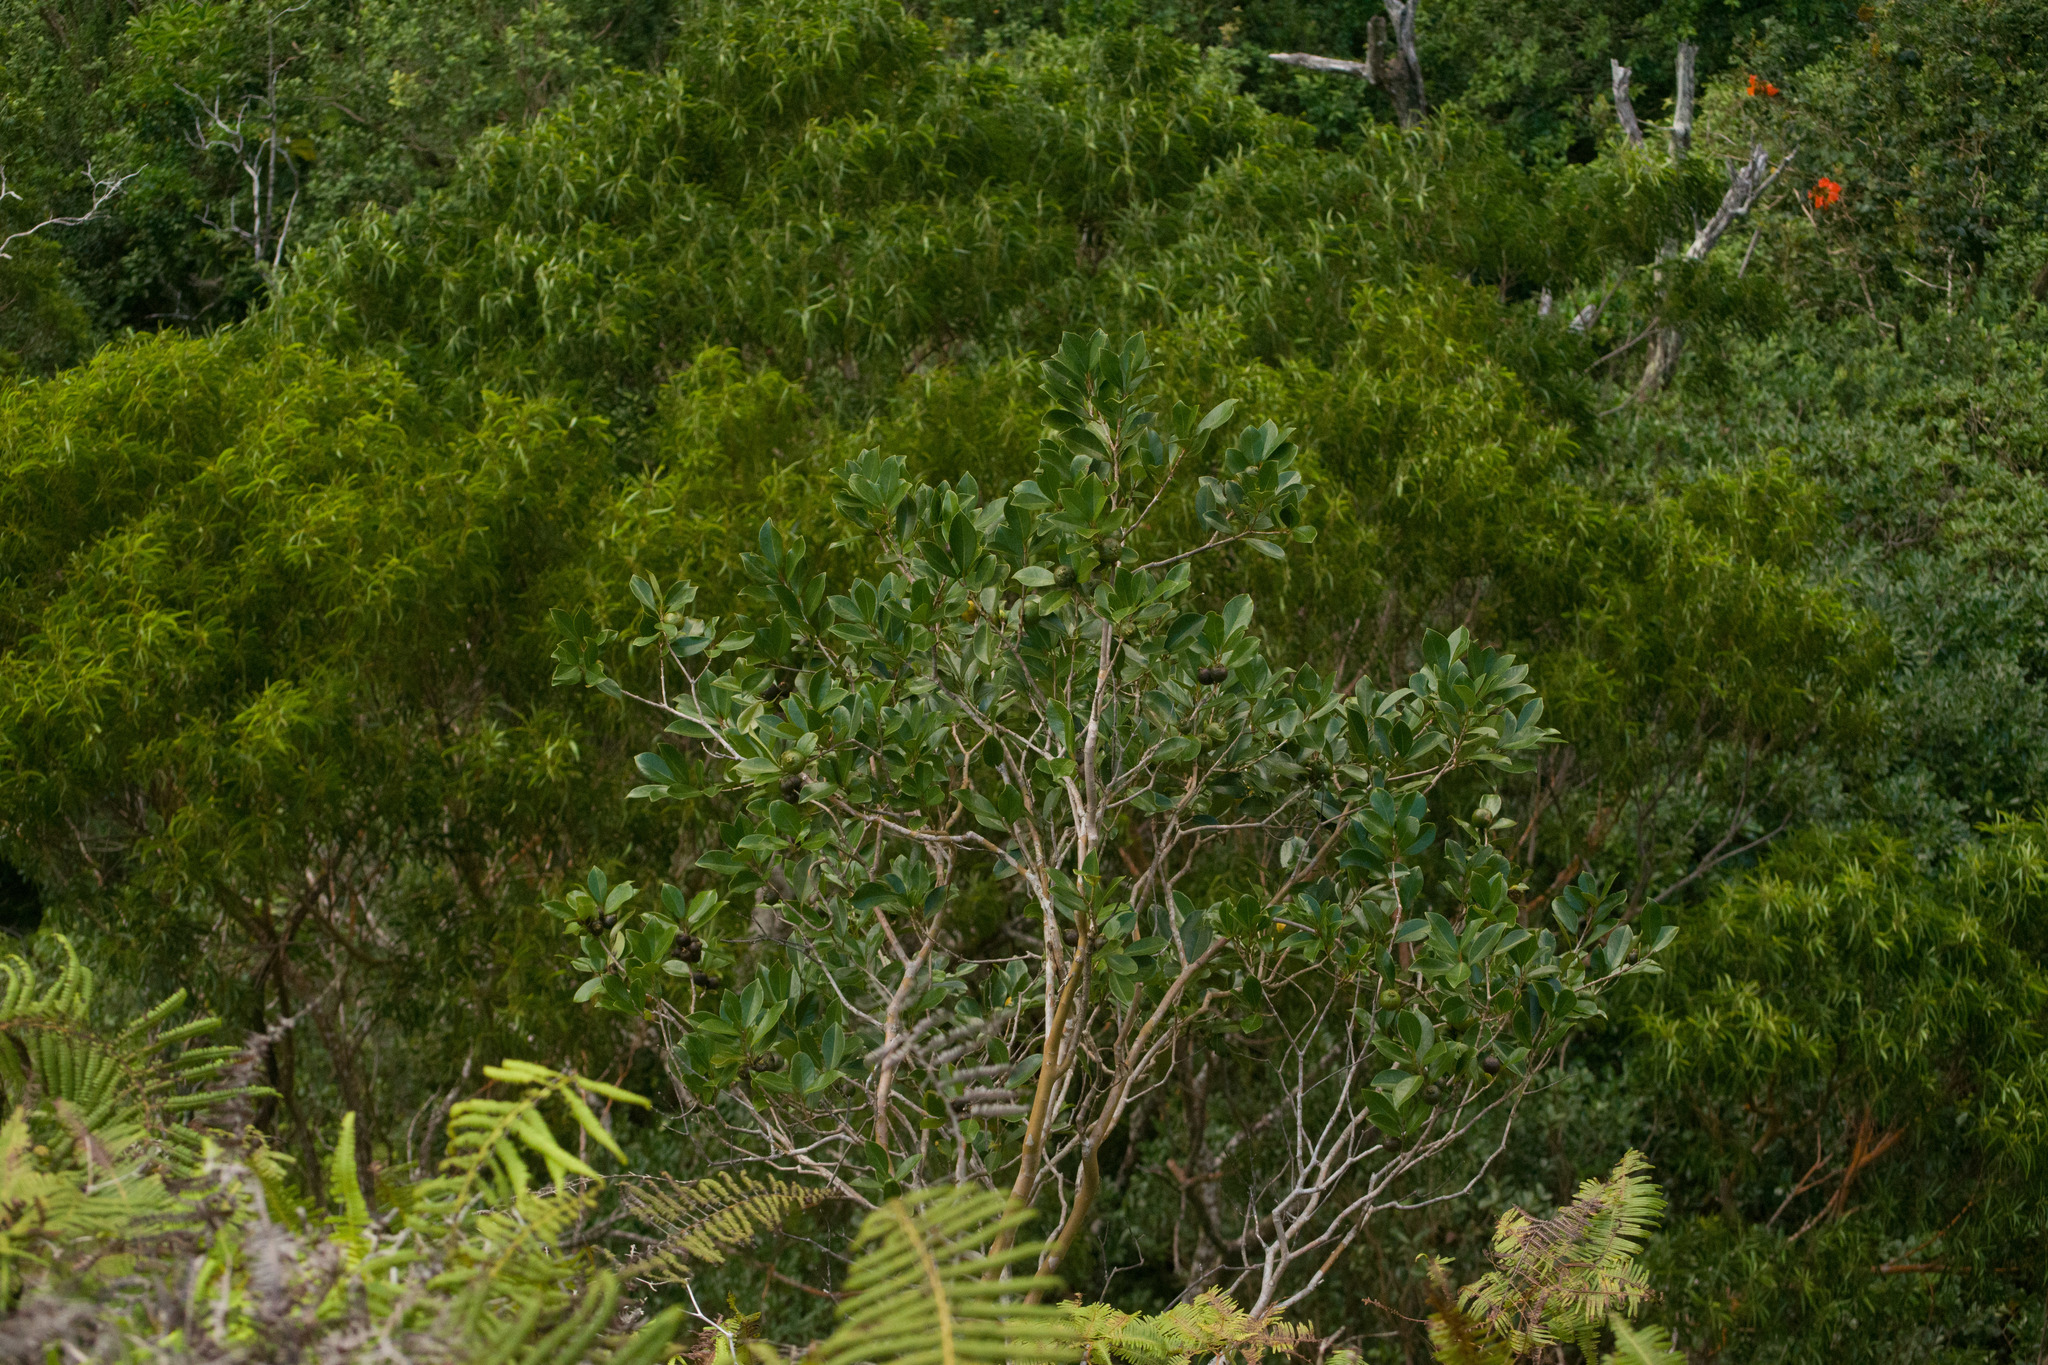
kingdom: Plantae
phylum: Tracheophyta
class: Magnoliopsida
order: Myrtales
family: Myrtaceae
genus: Psidium
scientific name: Psidium cattleianum
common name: Strawberry guava
